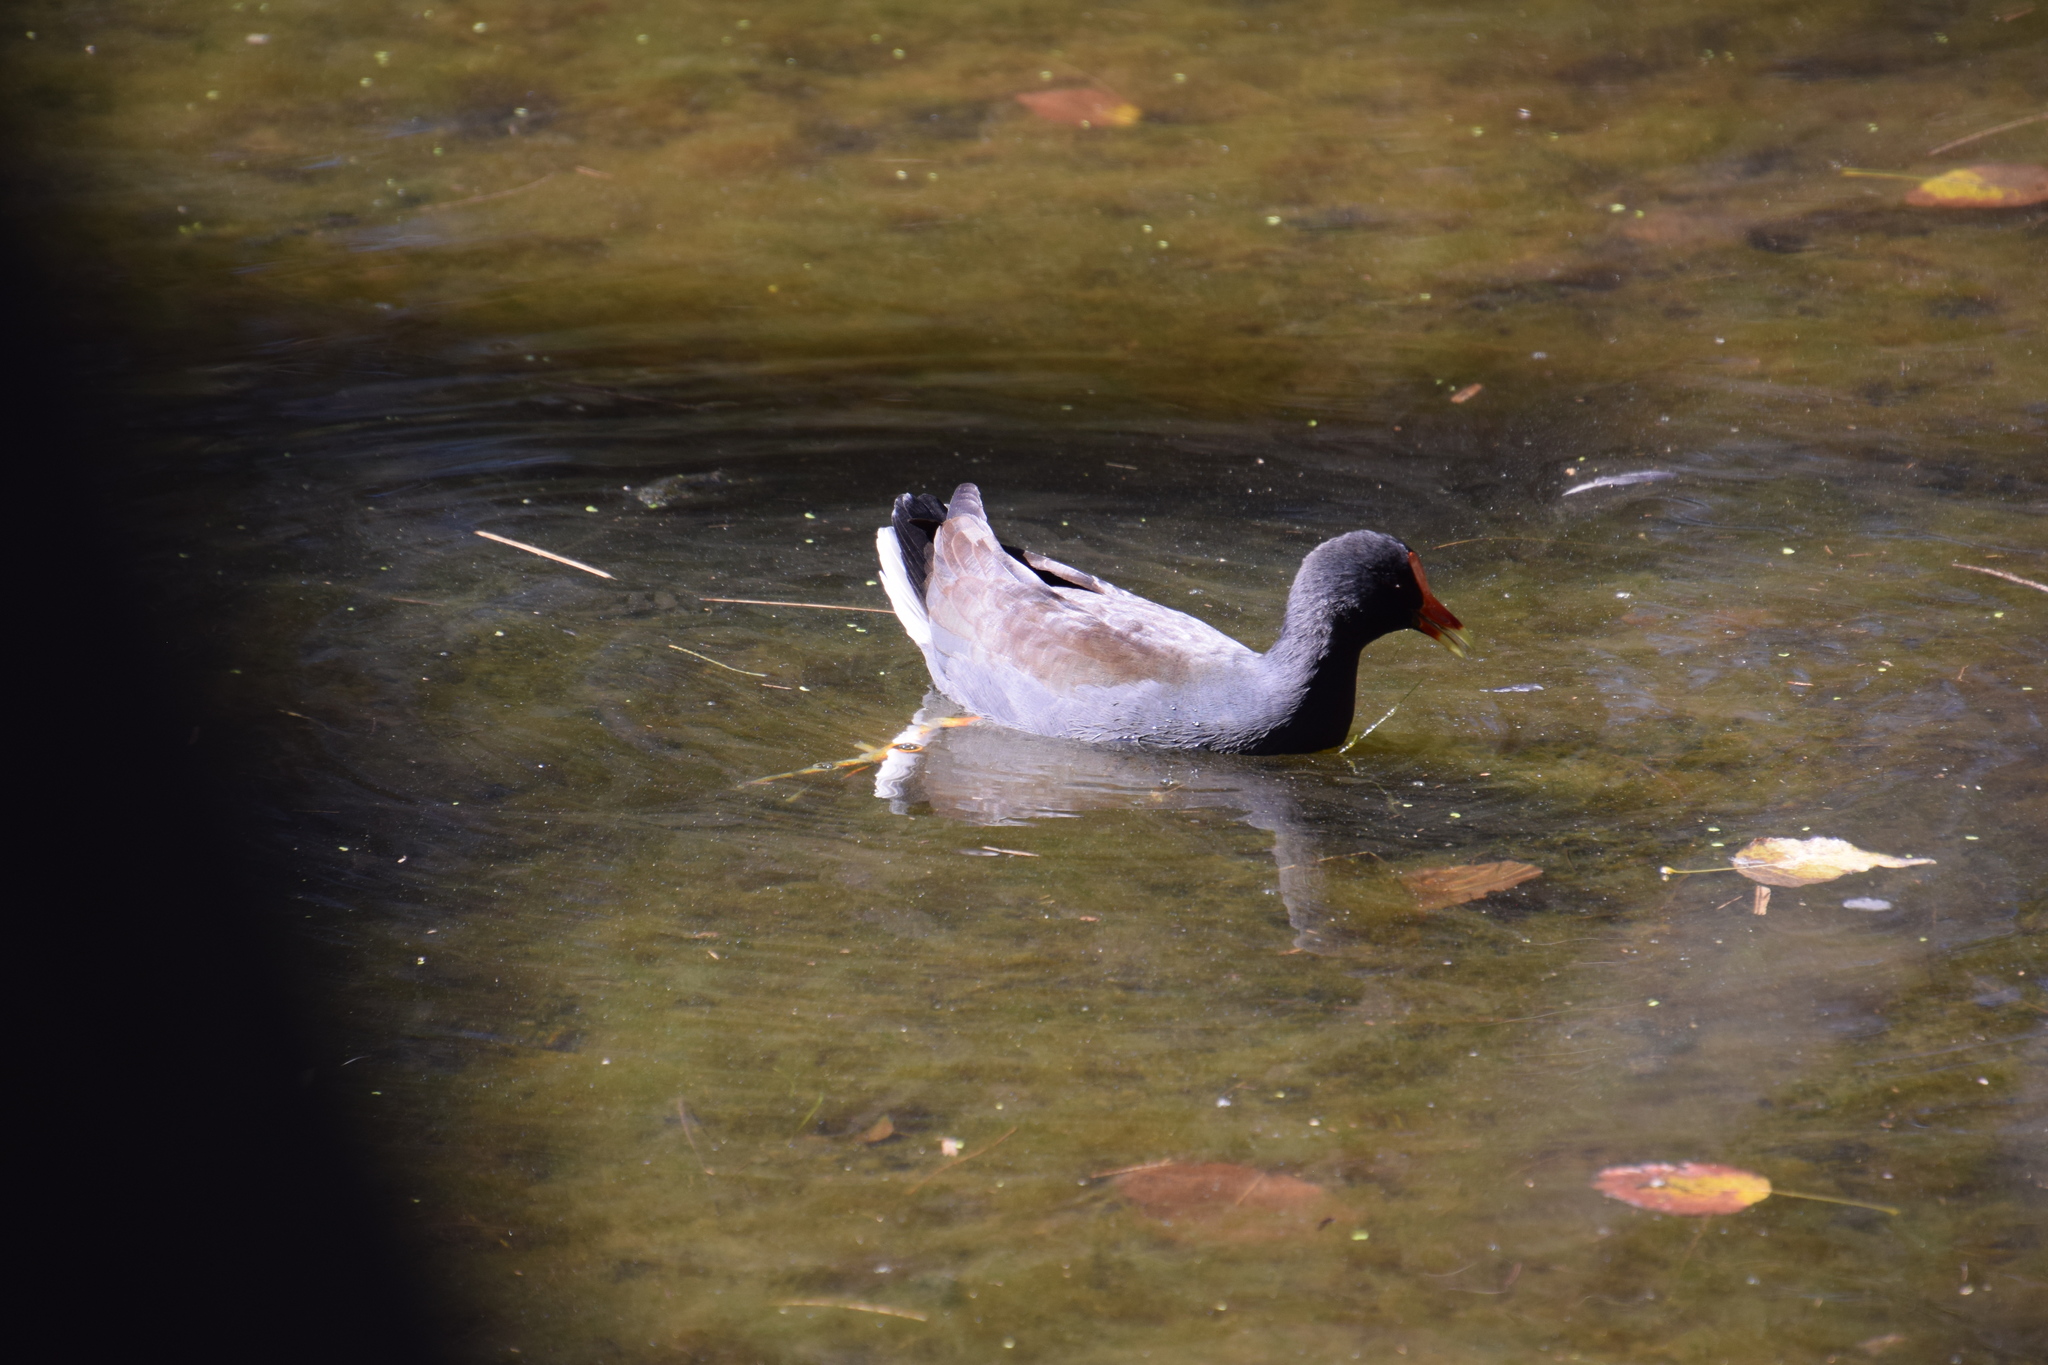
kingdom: Animalia
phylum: Chordata
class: Aves
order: Gruiformes
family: Rallidae
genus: Gallinula
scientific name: Gallinula tenebrosa
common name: Dusky moorhen
